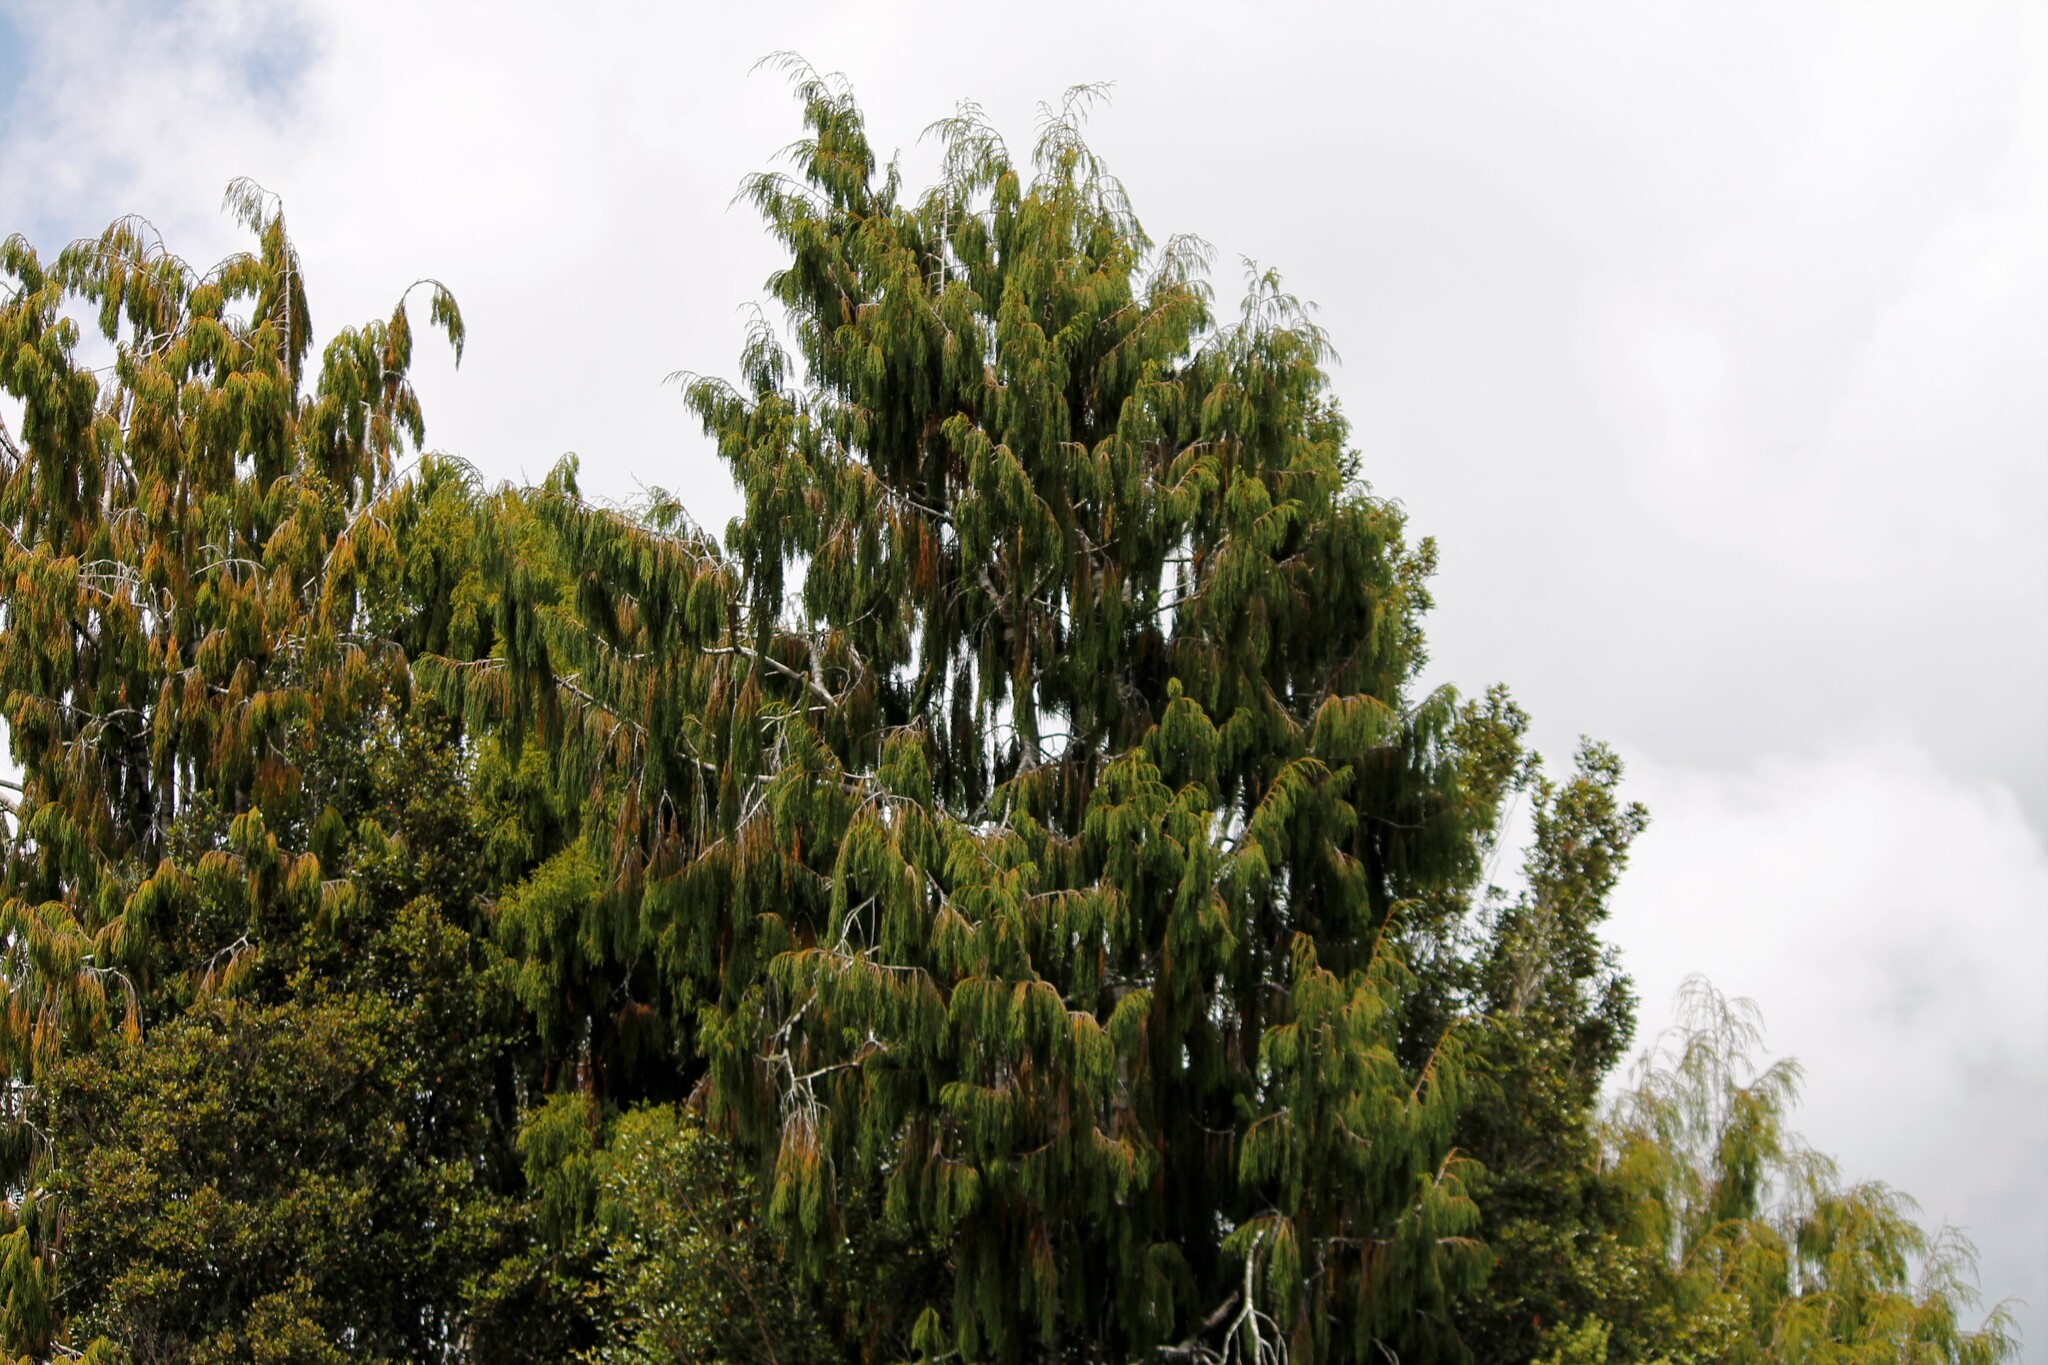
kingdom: Plantae
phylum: Tracheophyta
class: Pinopsida
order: Pinales
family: Podocarpaceae
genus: Dacrydium
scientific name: Dacrydium cupressinum
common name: Red pine
